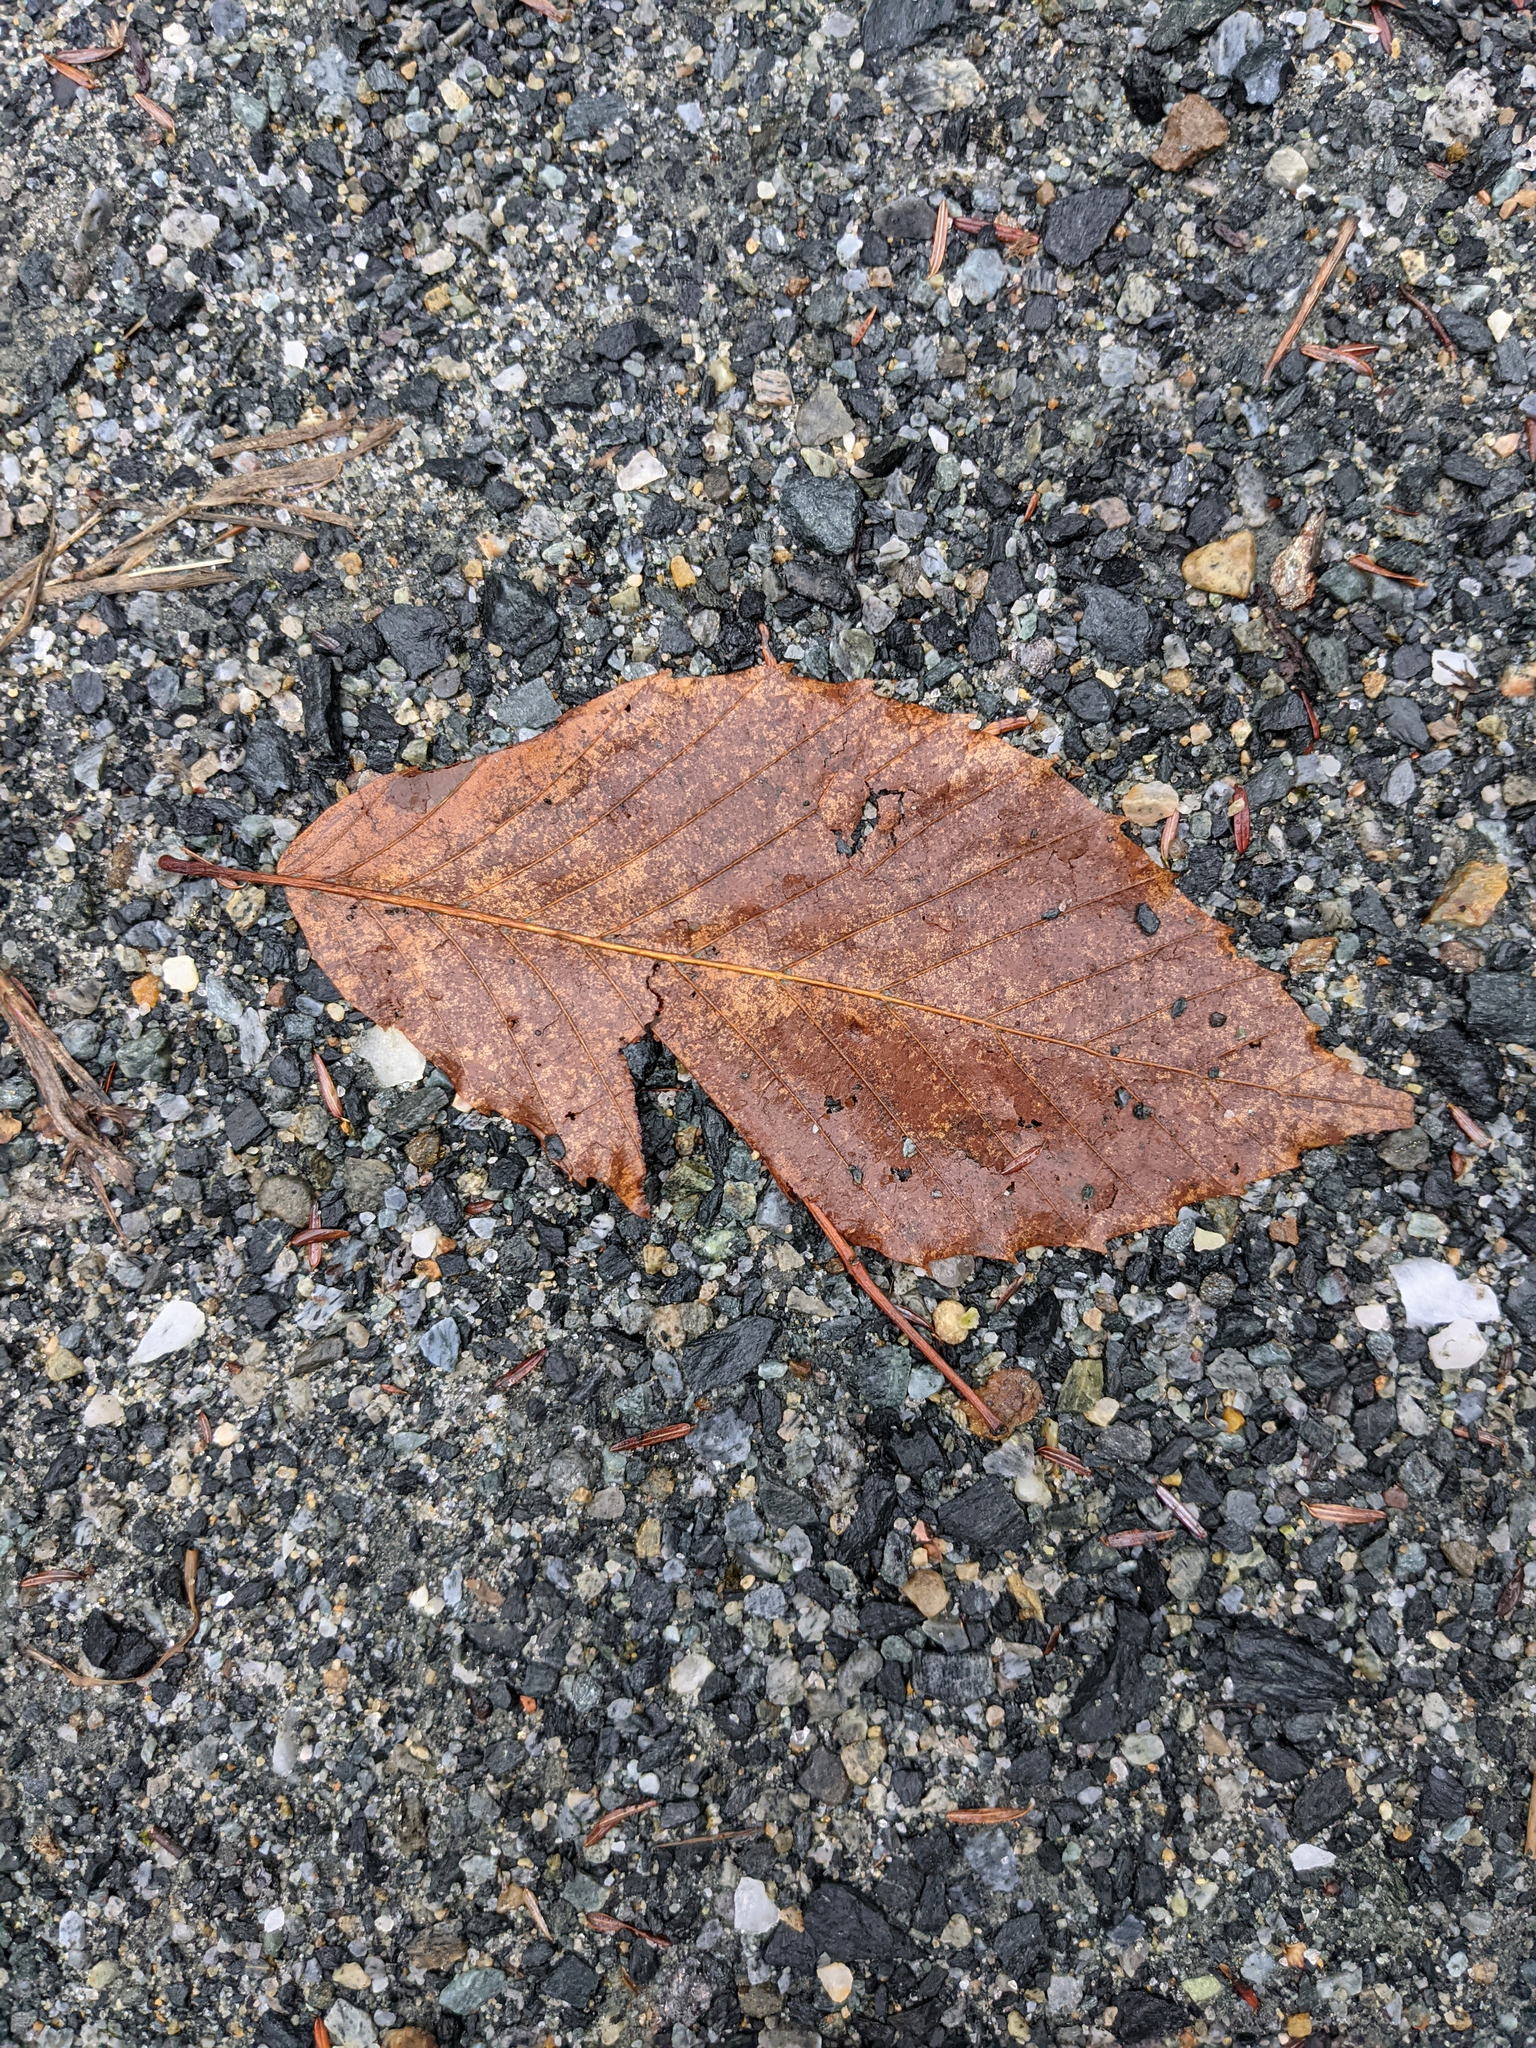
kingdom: Plantae
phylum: Tracheophyta
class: Magnoliopsida
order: Fagales
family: Fagaceae
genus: Fagus
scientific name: Fagus grandifolia
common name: American beech
